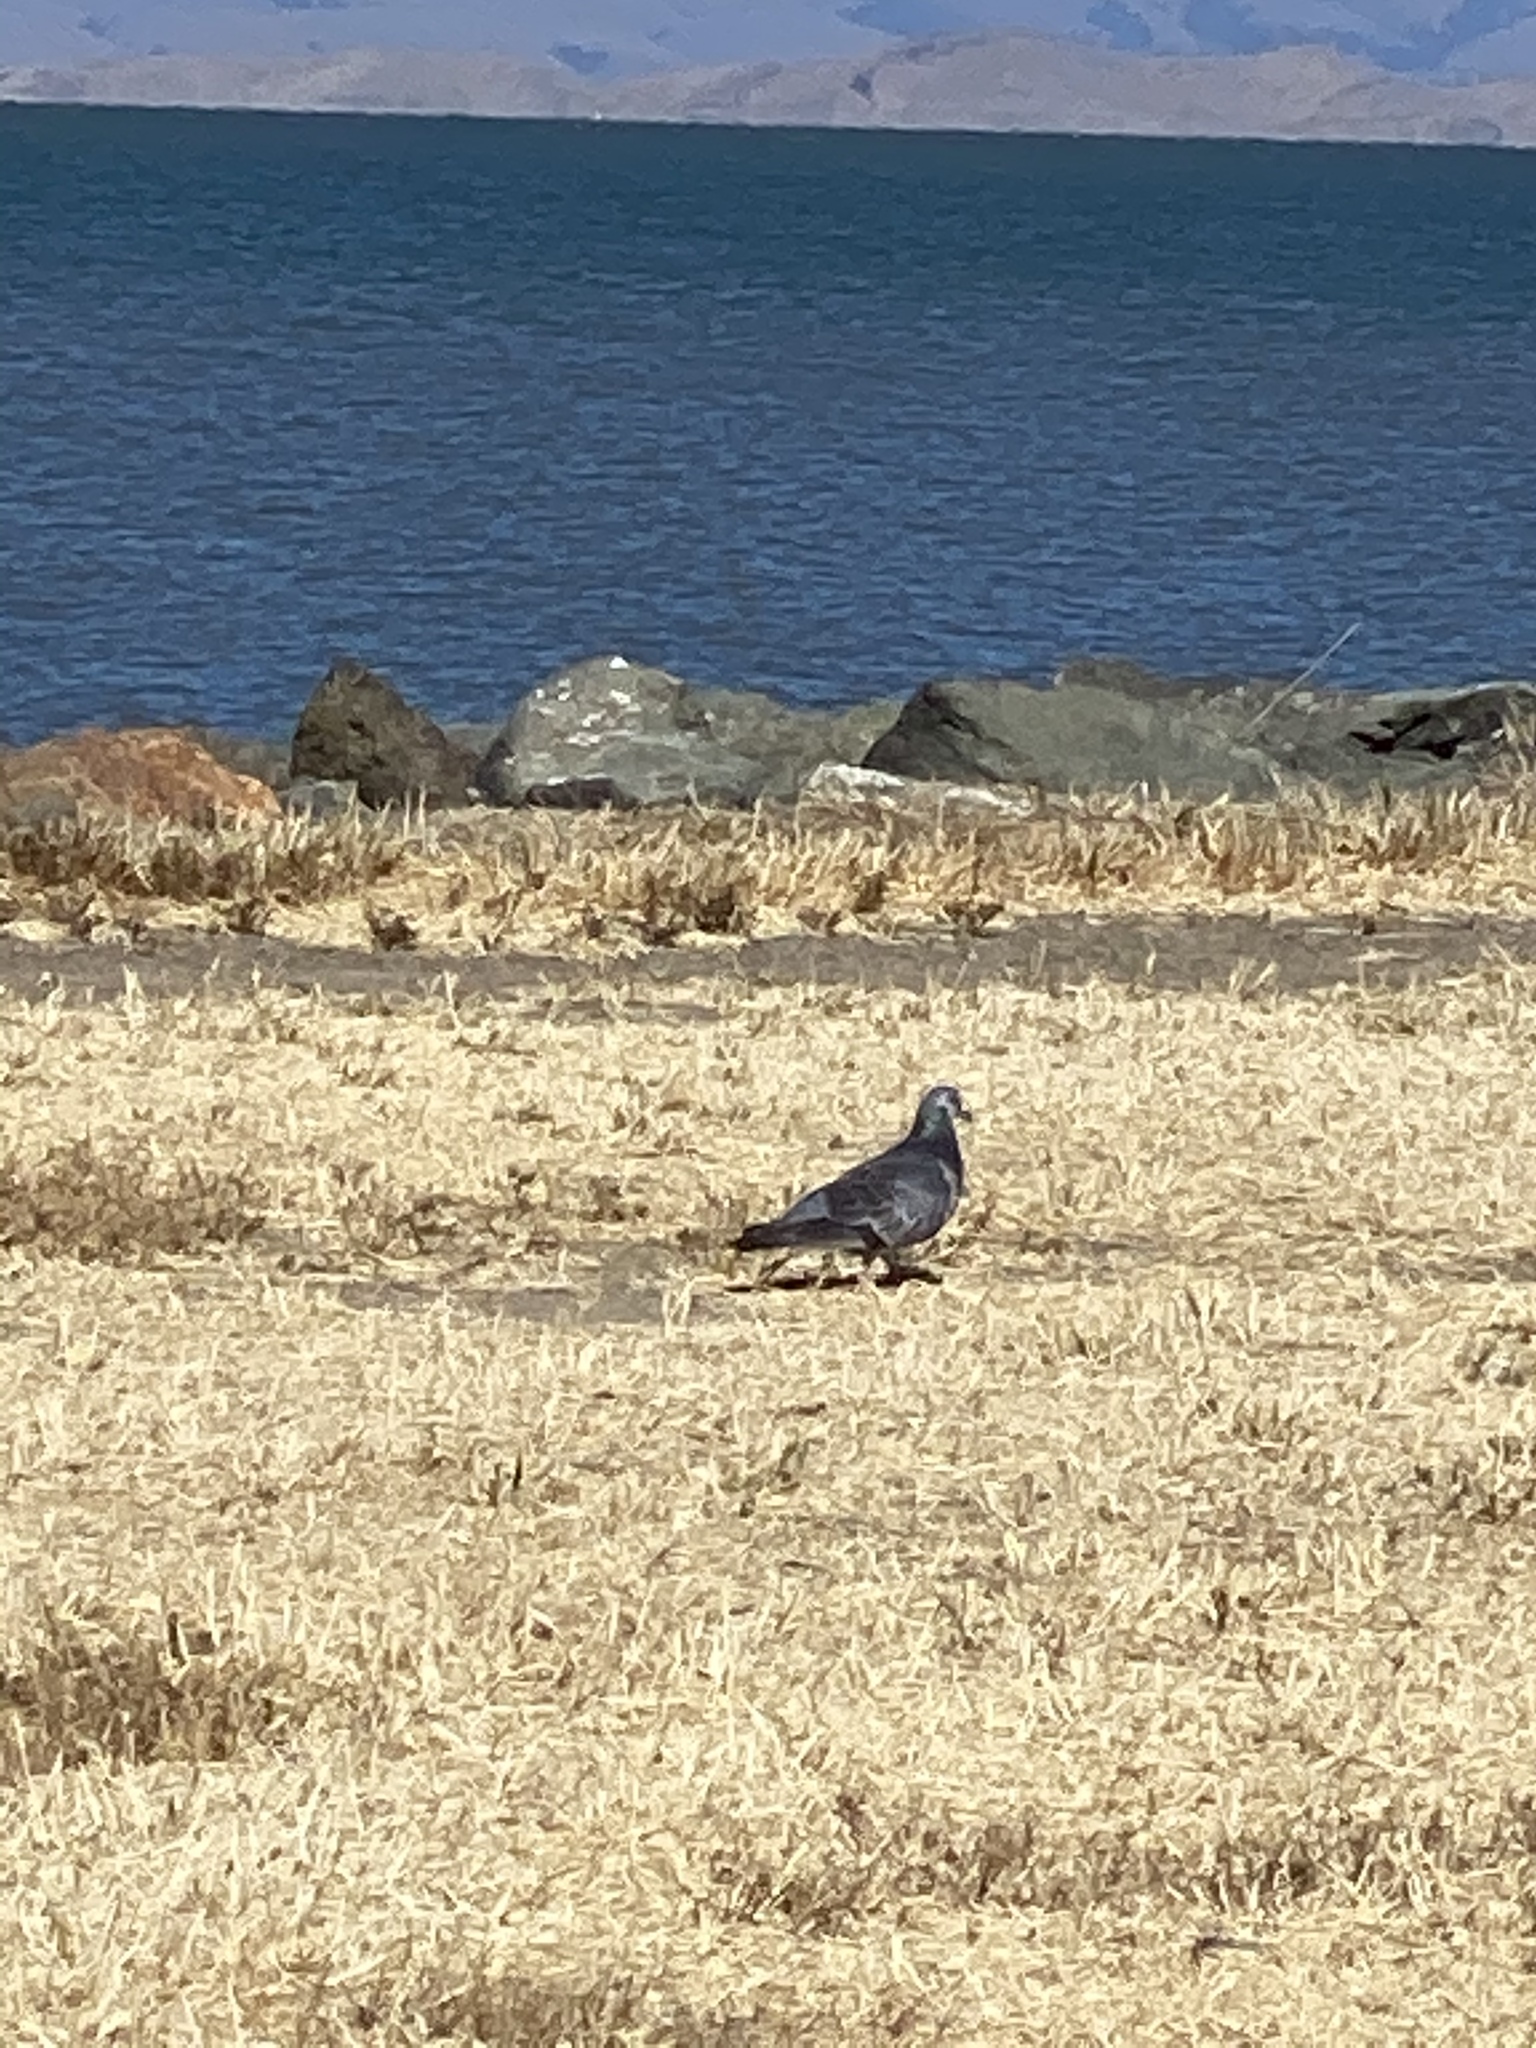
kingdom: Animalia
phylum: Chordata
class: Aves
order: Columbiformes
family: Columbidae
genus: Columba
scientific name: Columba livia
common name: Rock pigeon
